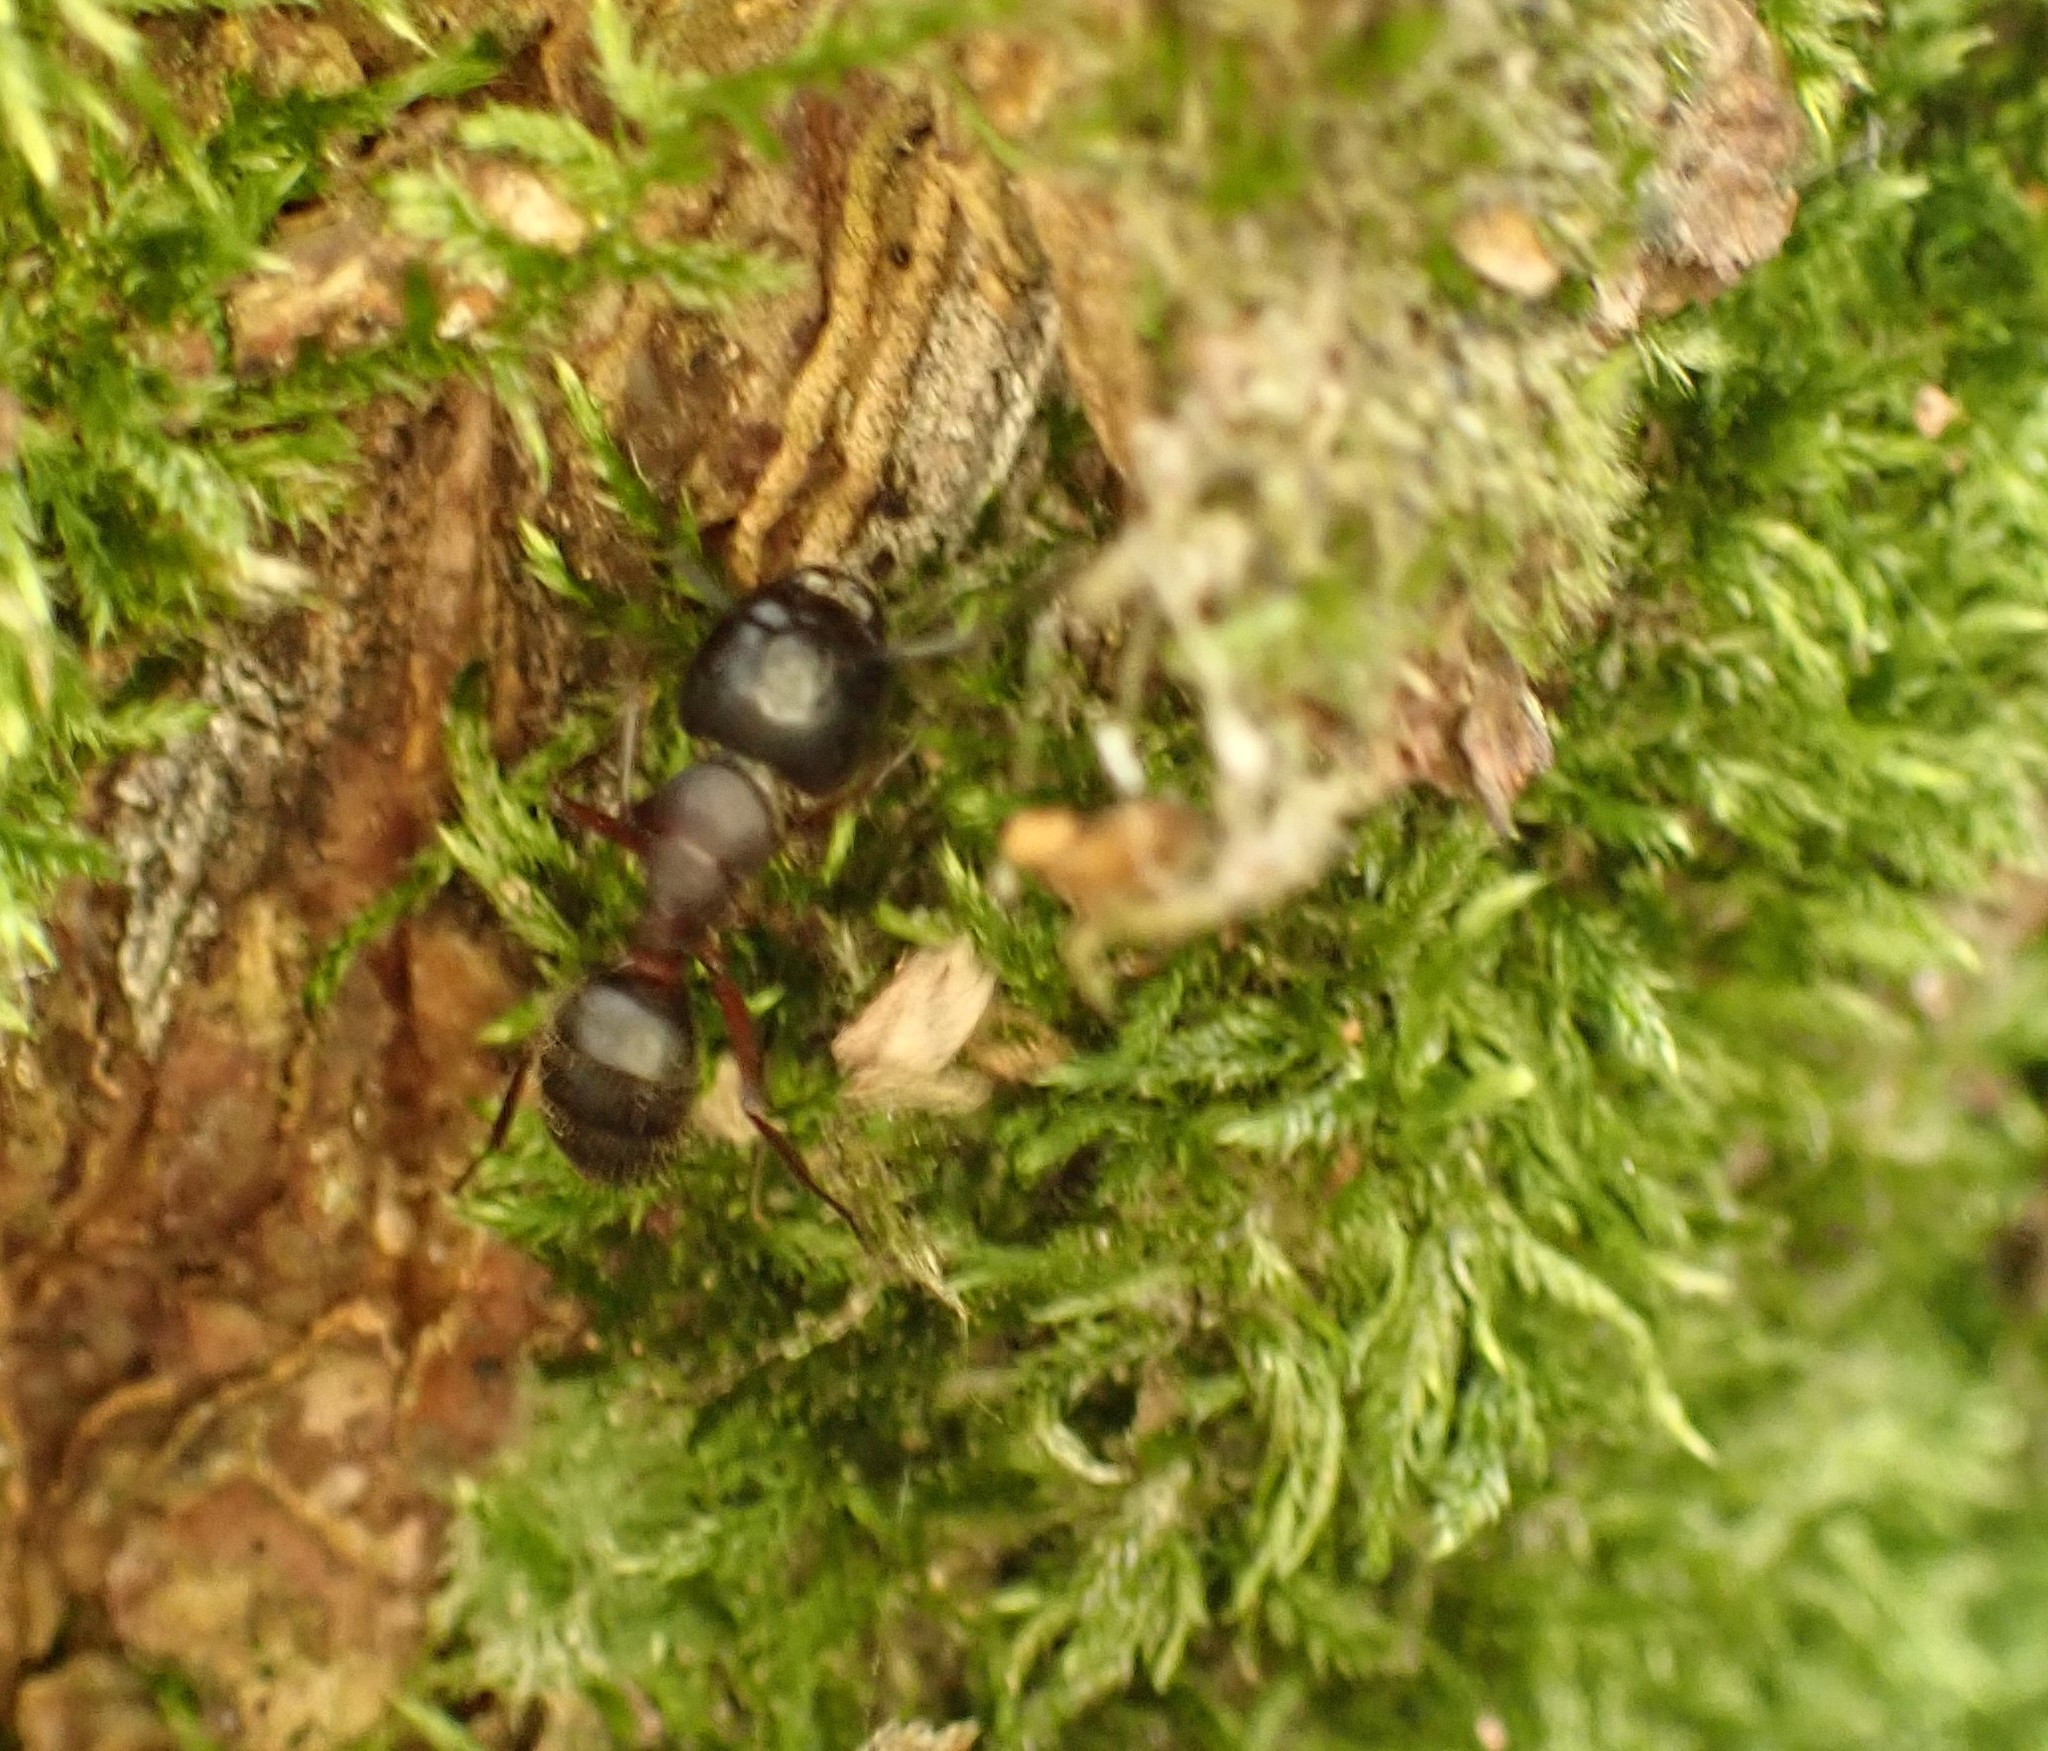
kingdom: Animalia
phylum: Arthropoda
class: Insecta
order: Hymenoptera
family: Formicidae
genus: Camponotus
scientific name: Camponotus herculeanus
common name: Hercules ant
